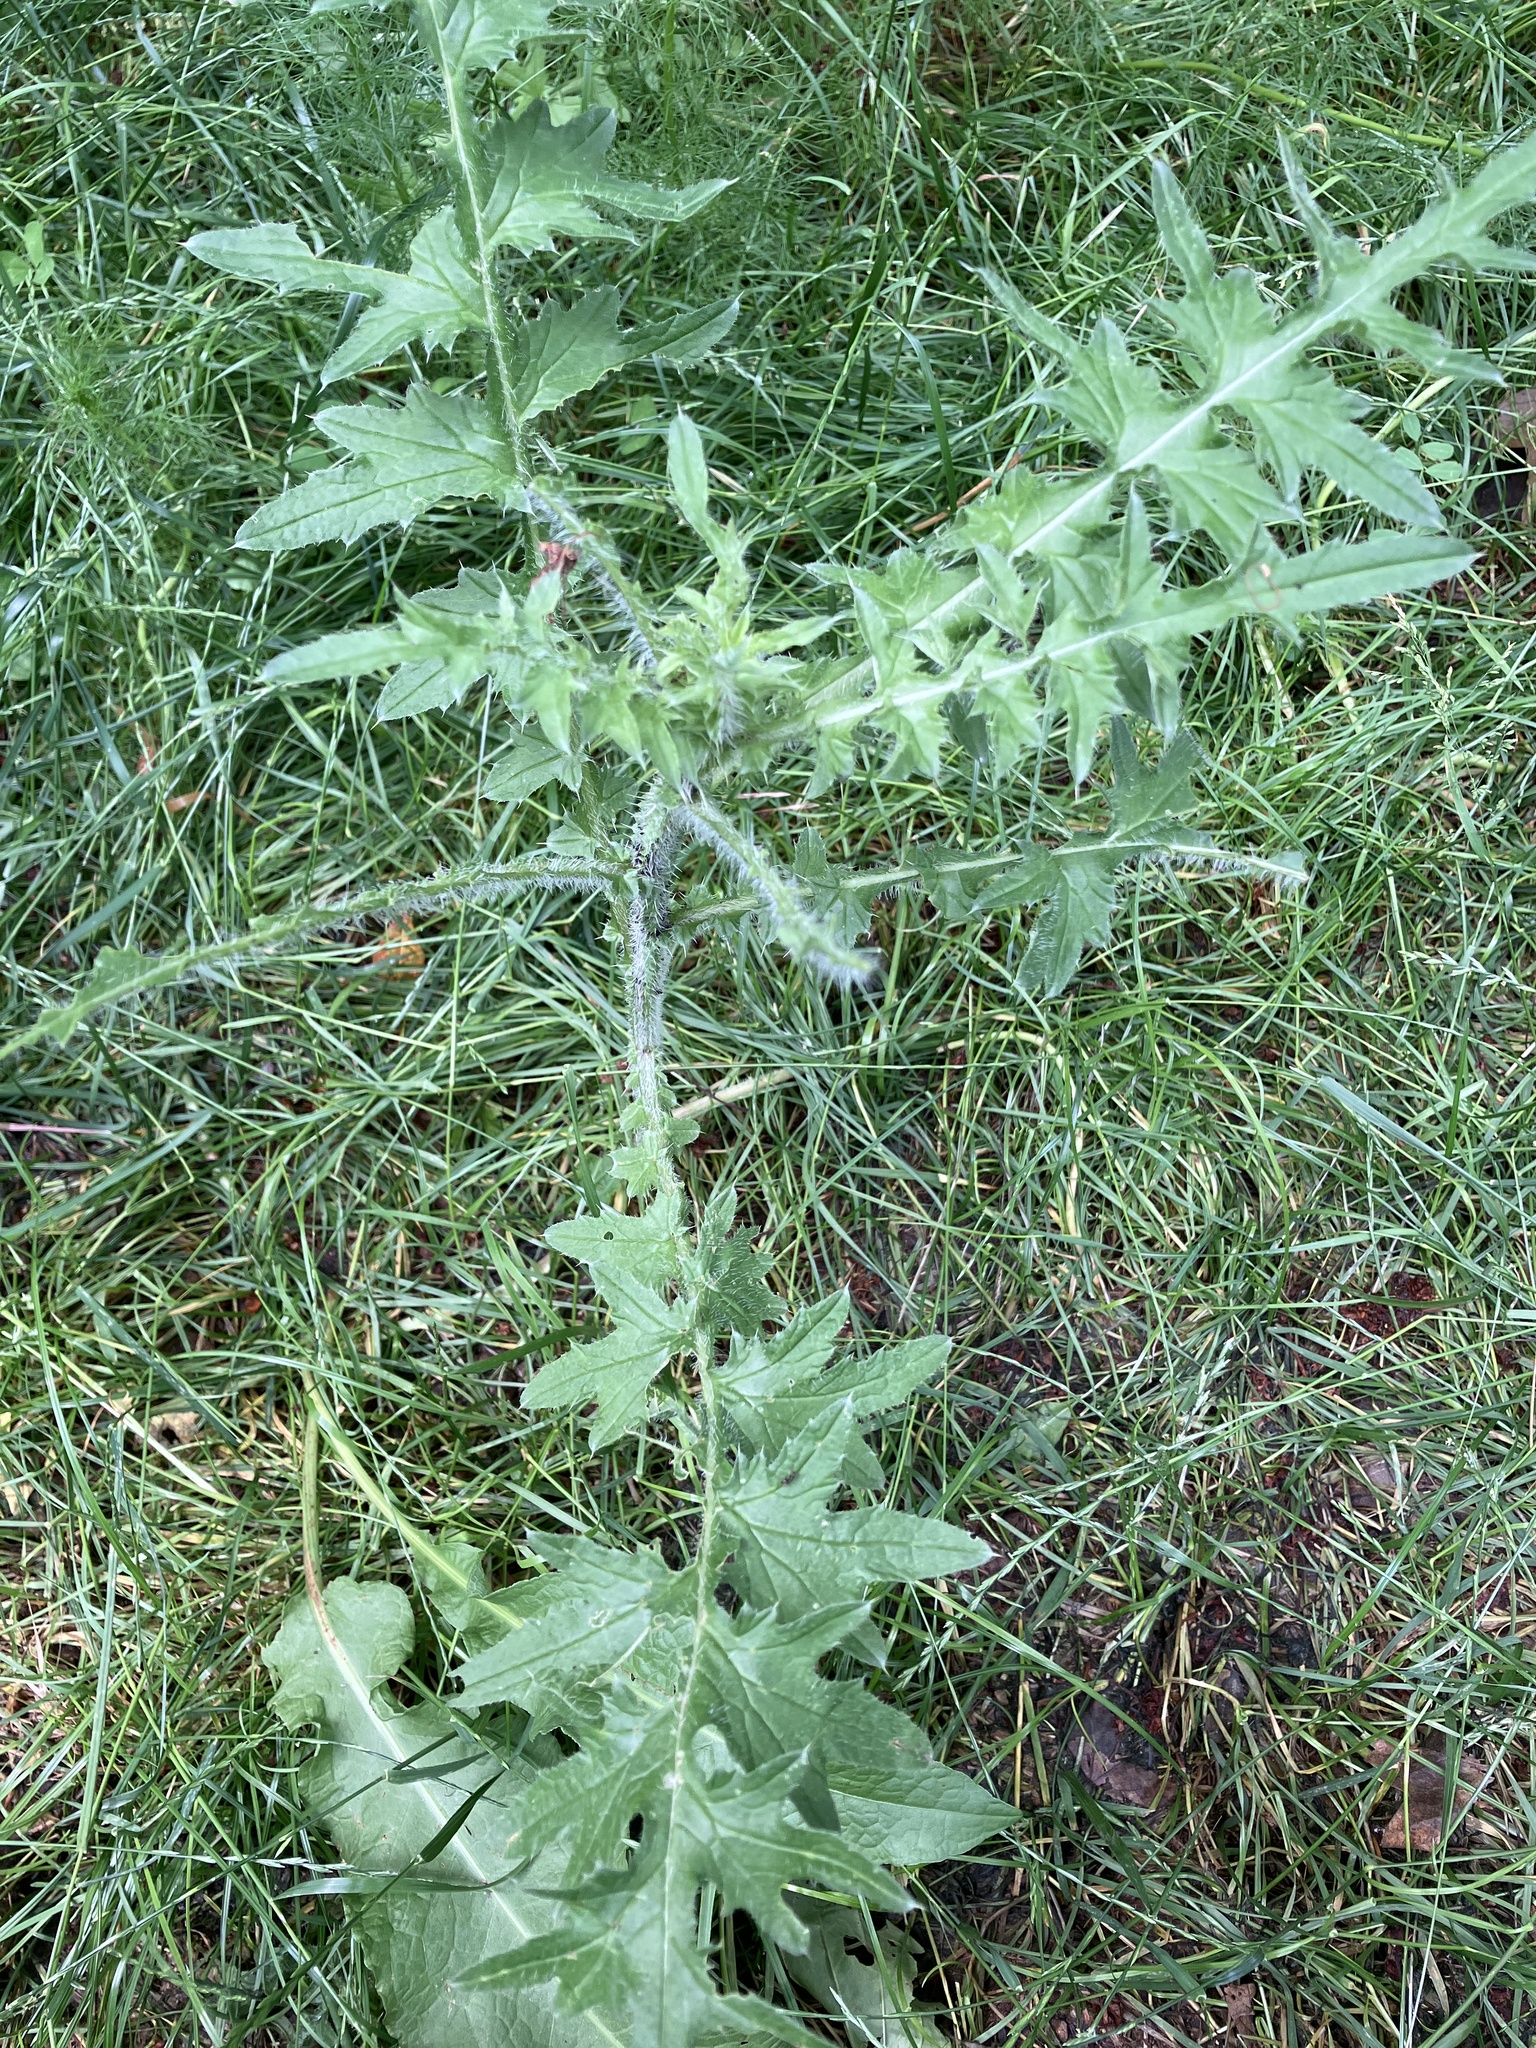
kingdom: Plantae
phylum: Tracheophyta
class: Magnoliopsida
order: Asterales
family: Asteraceae
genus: Carduus
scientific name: Carduus crispus
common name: Welted thistle
